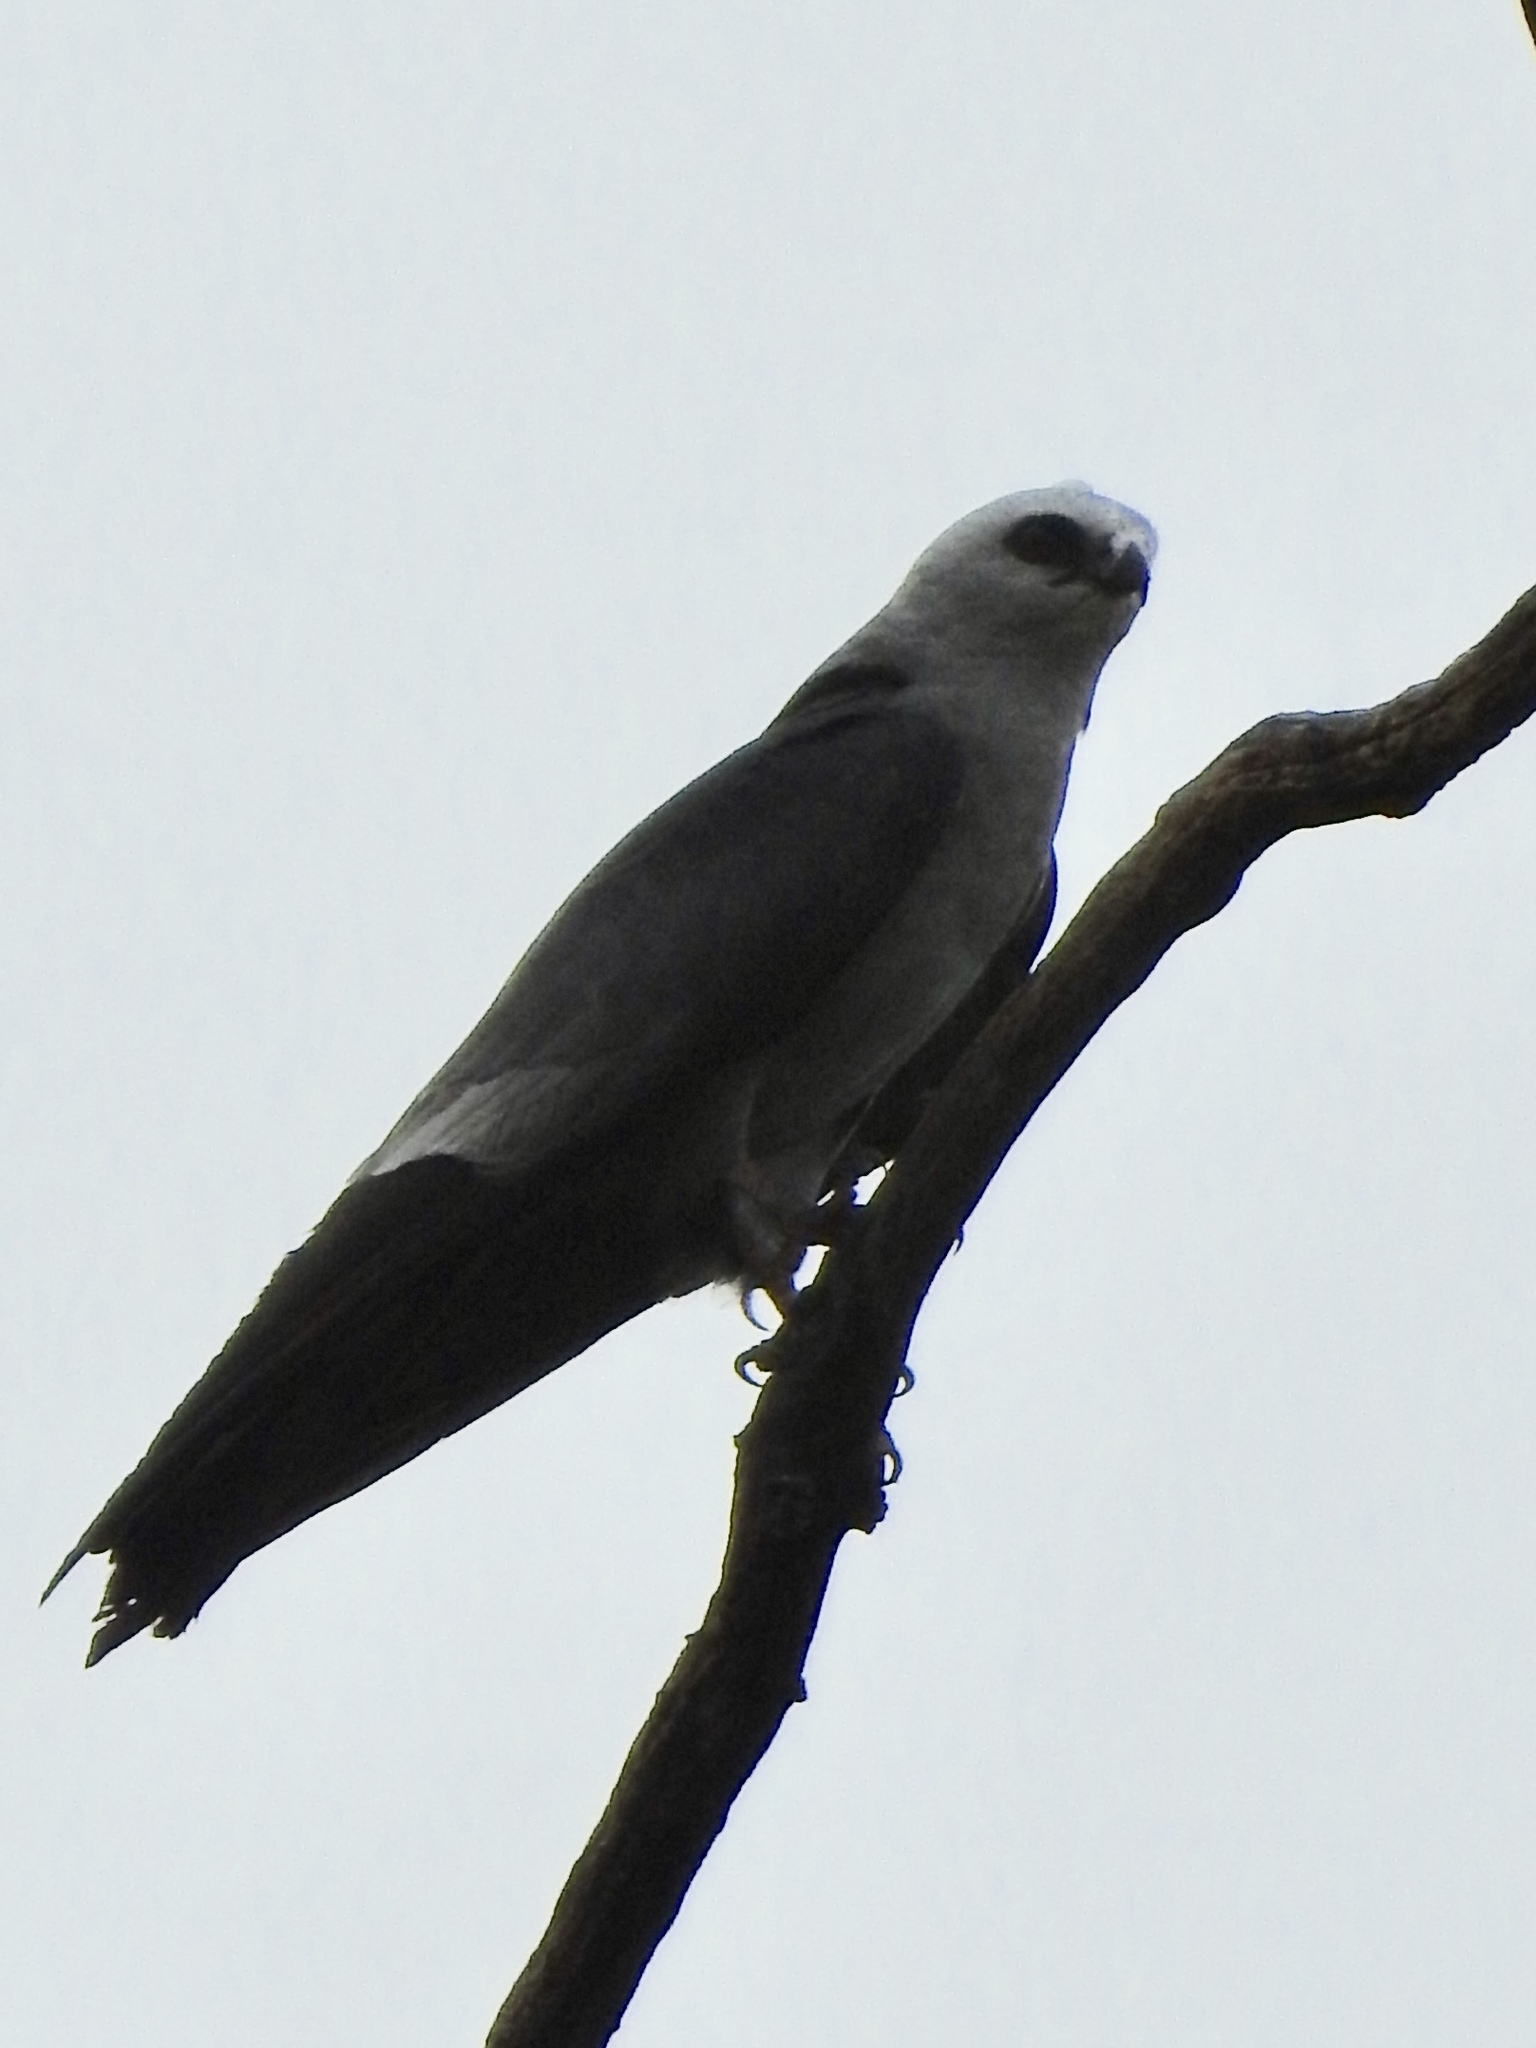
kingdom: Animalia
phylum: Chordata
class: Aves
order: Accipitriformes
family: Accipitridae
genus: Ictinia
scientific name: Ictinia mississippiensis
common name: Mississippi kite
